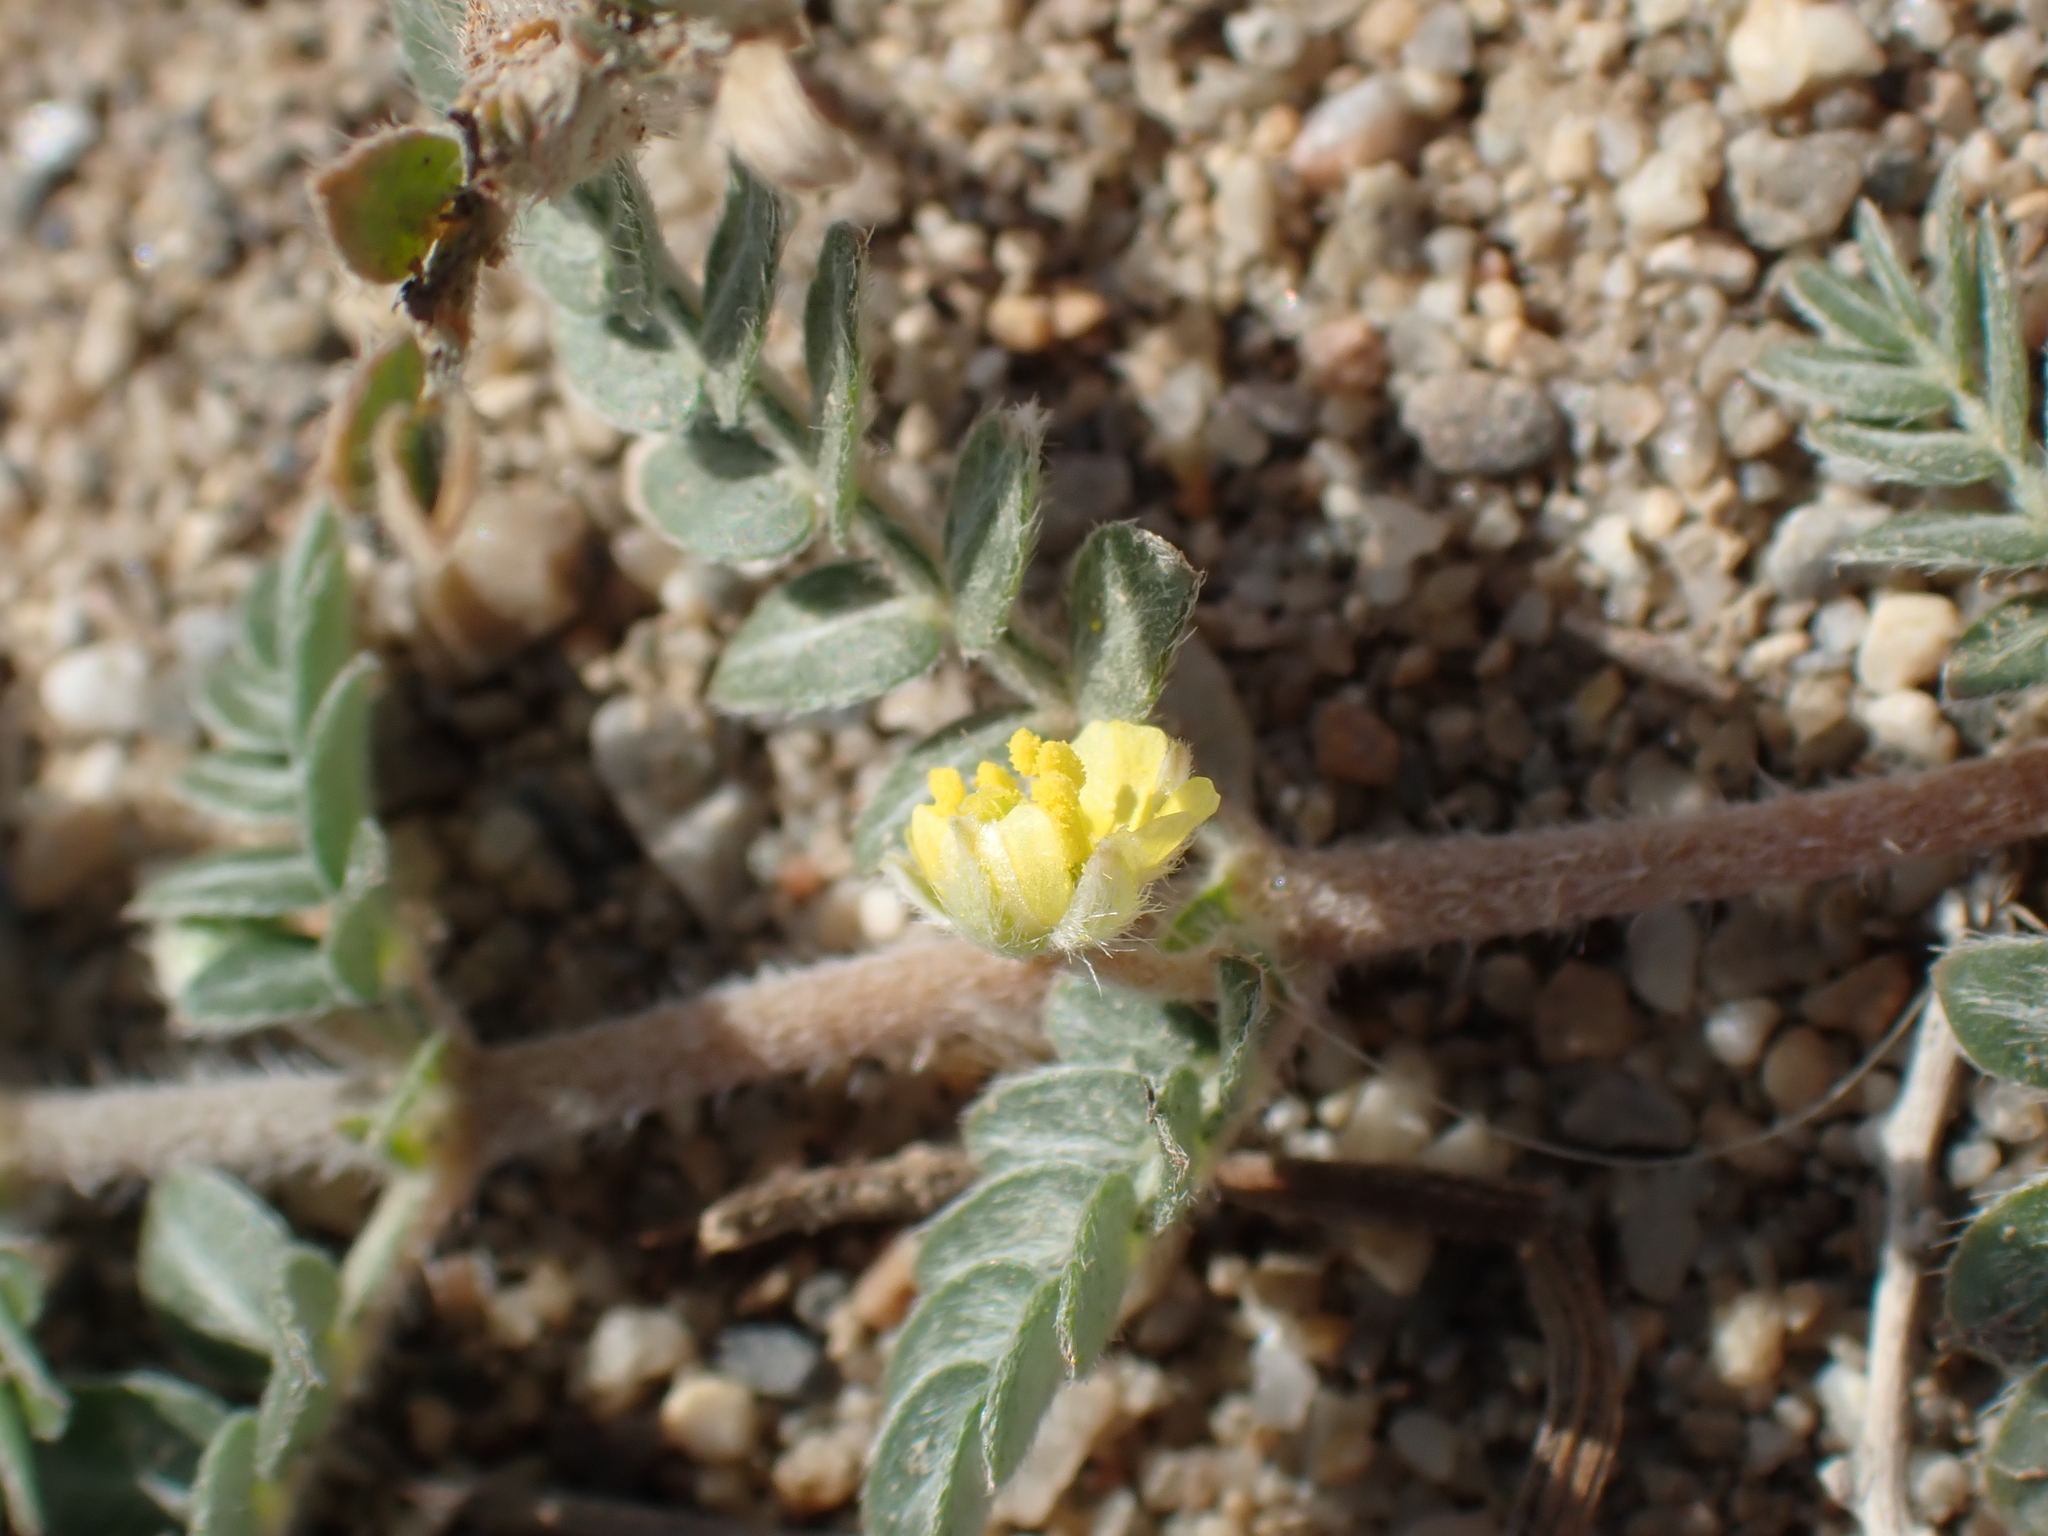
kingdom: Plantae
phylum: Tracheophyta
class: Magnoliopsida
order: Zygophyllales
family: Zygophyllaceae
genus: Tribulus
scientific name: Tribulus terrestris
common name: Puncturevine
